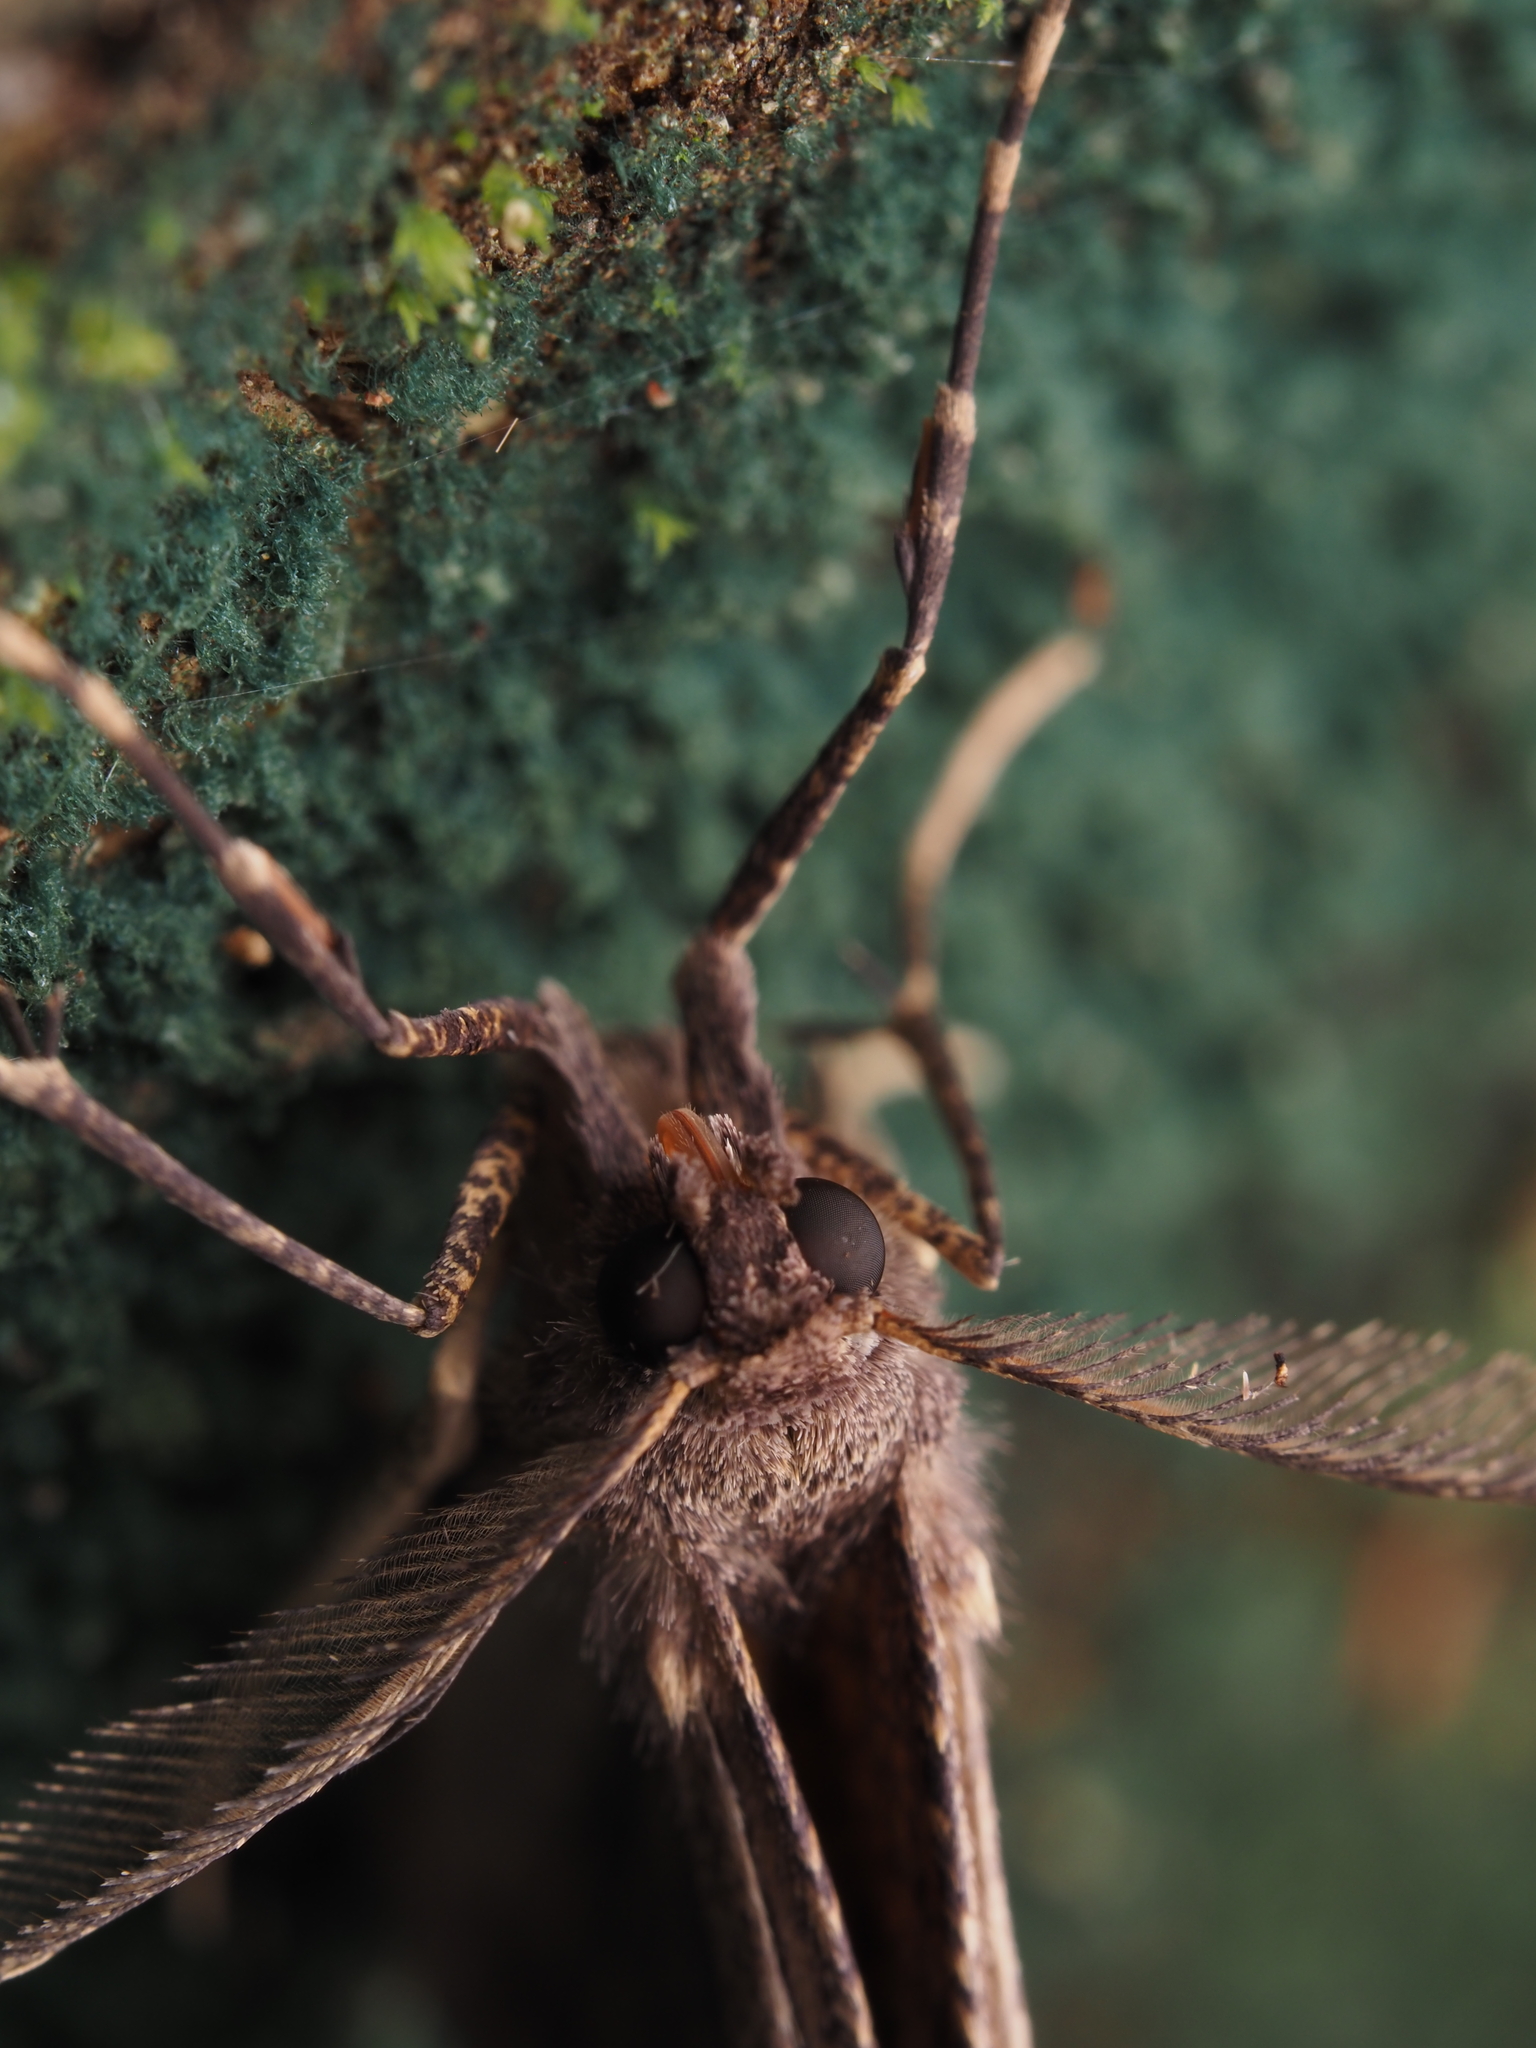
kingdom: Animalia
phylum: Arthropoda
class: Insecta
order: Lepidoptera
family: Geometridae
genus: Cleora
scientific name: Cleora scriptaria
